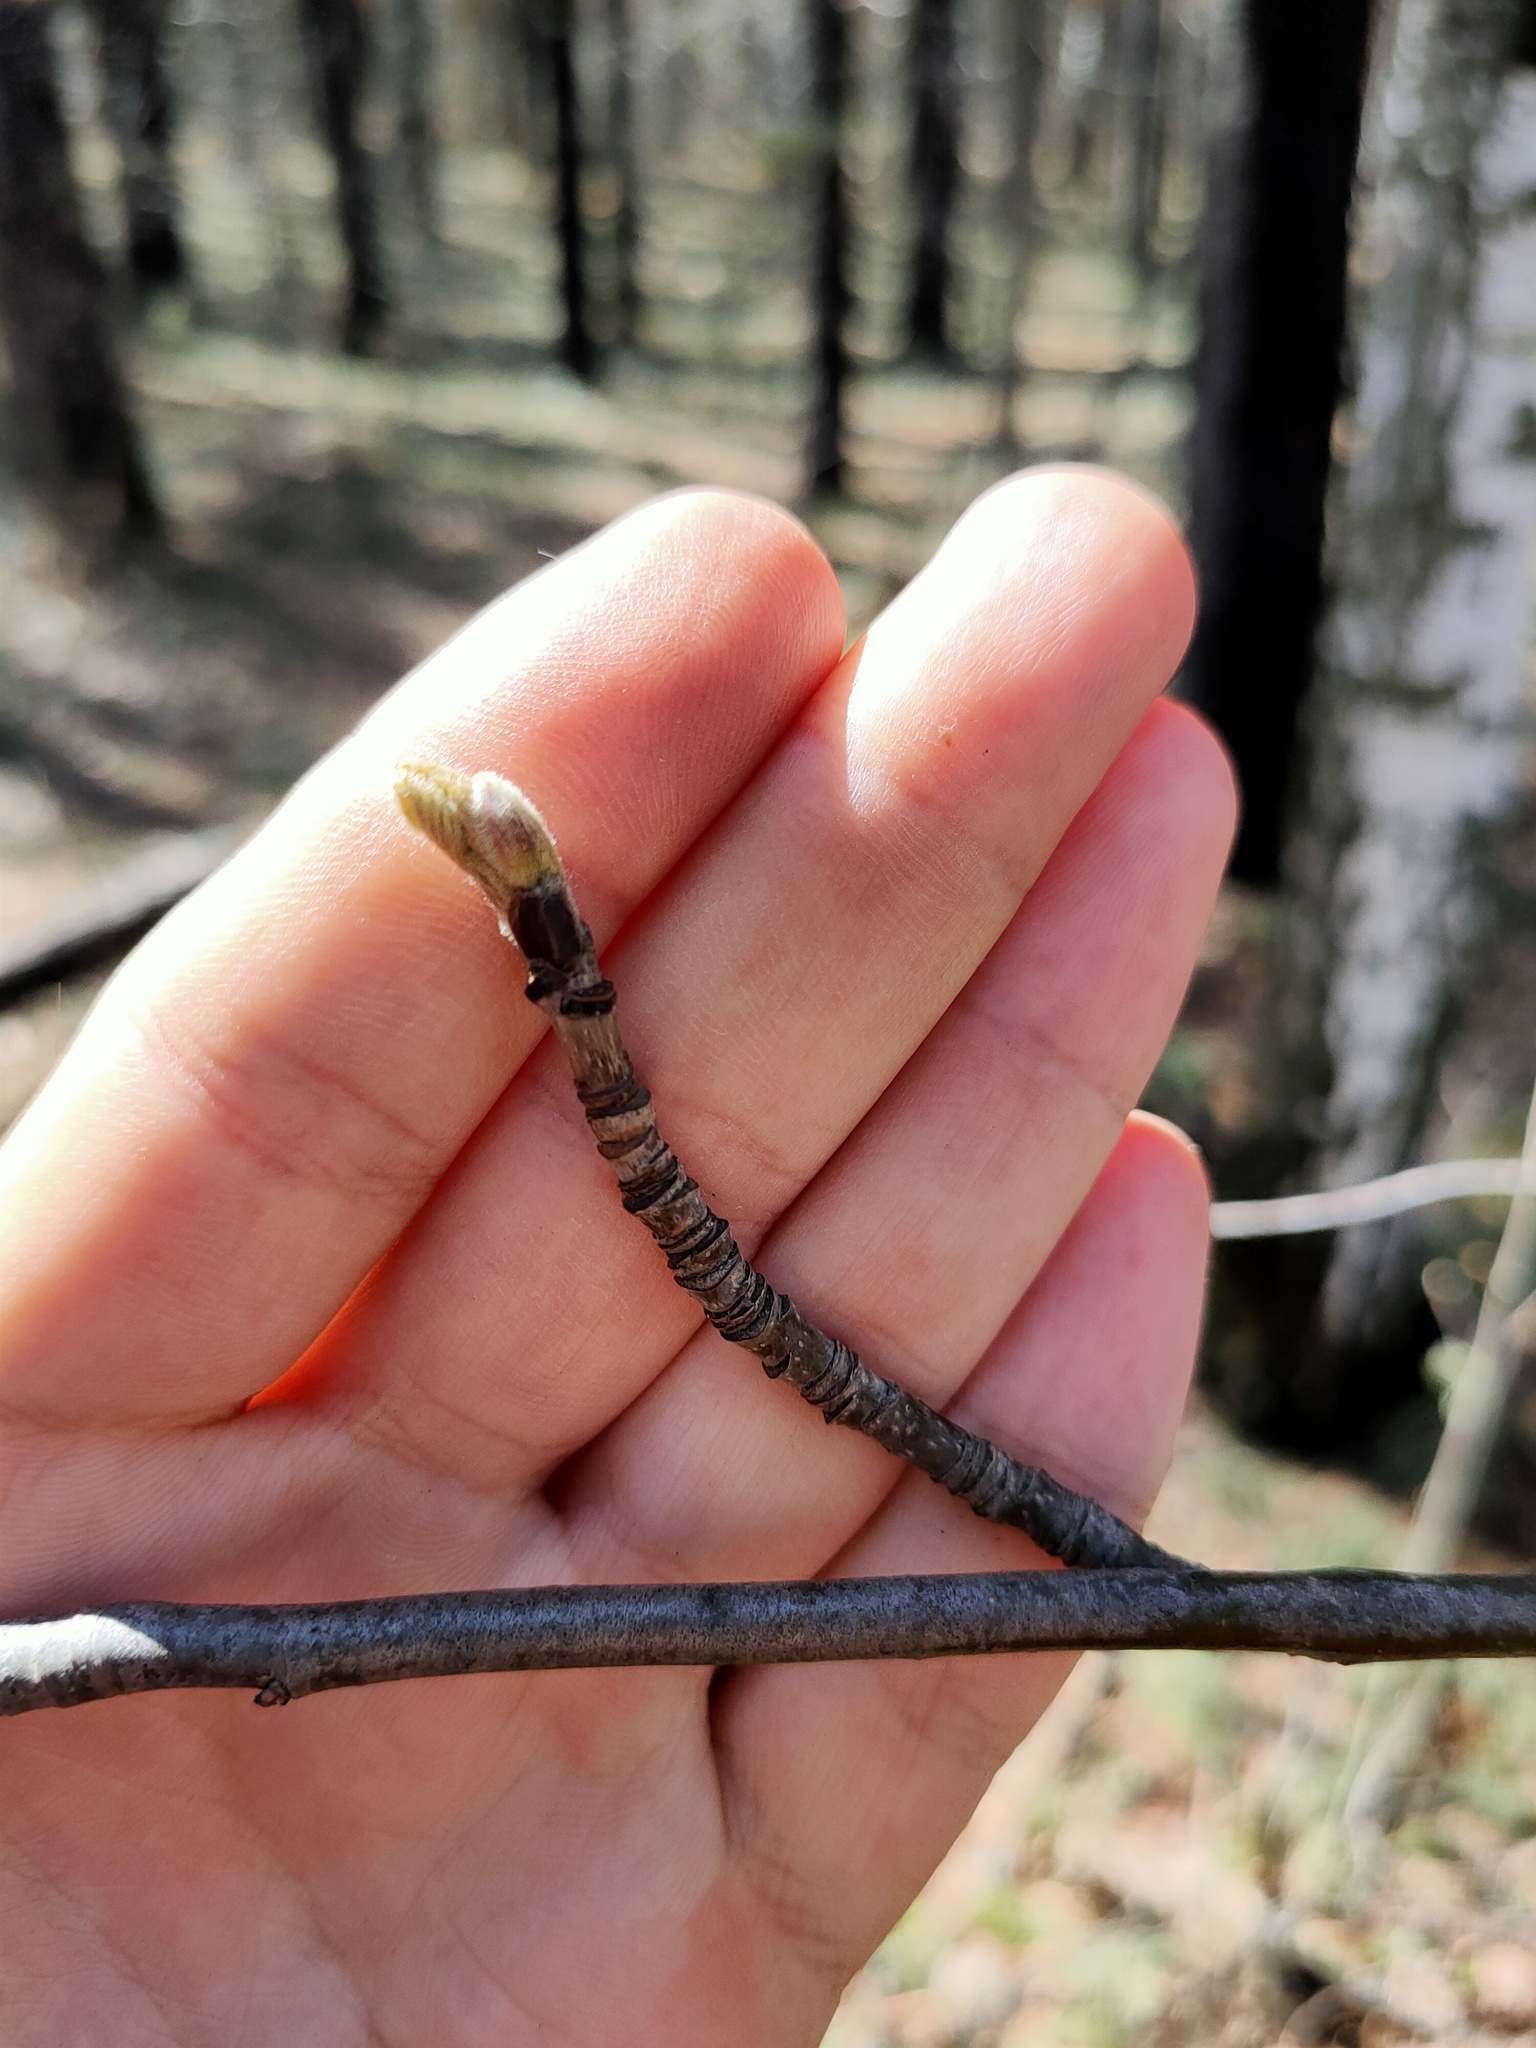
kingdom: Plantae
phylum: Tracheophyta
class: Magnoliopsida
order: Rosales
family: Rosaceae
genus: Sorbus
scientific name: Sorbus aucuparia
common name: Rowan
